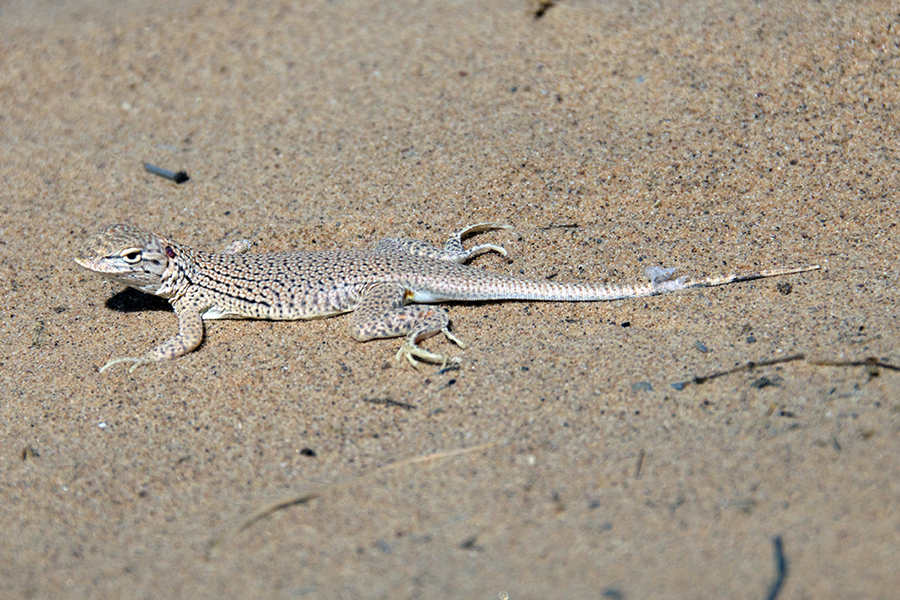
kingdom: Animalia
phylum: Chordata
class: Squamata
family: Phrynosomatidae
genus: Uma
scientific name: Uma rufopunctata
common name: Yuman desert fringe-toed lizard
